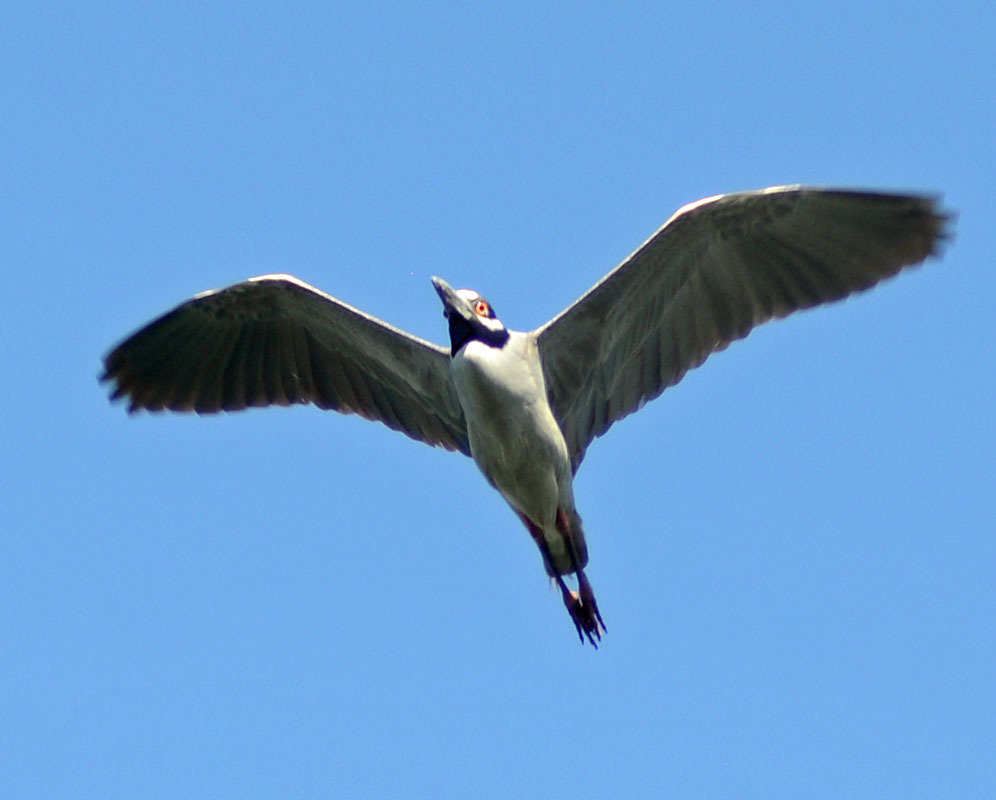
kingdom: Animalia
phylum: Chordata
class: Aves
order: Pelecaniformes
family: Ardeidae
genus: Nycticorax
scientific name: Nycticorax nycticorax
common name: Black-crowned night heron
